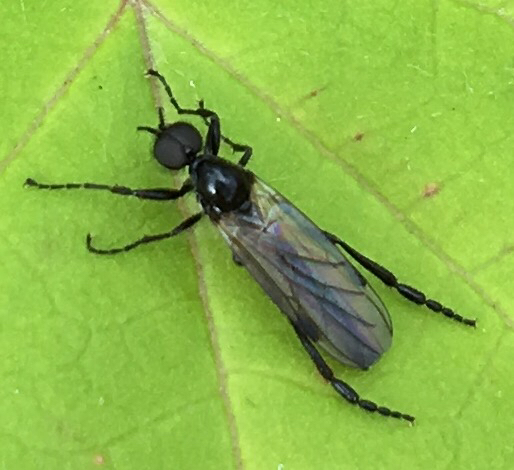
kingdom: Animalia
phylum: Arthropoda
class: Insecta
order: Diptera
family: Bibionidae
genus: Bibio
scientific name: Bibio slossonae
